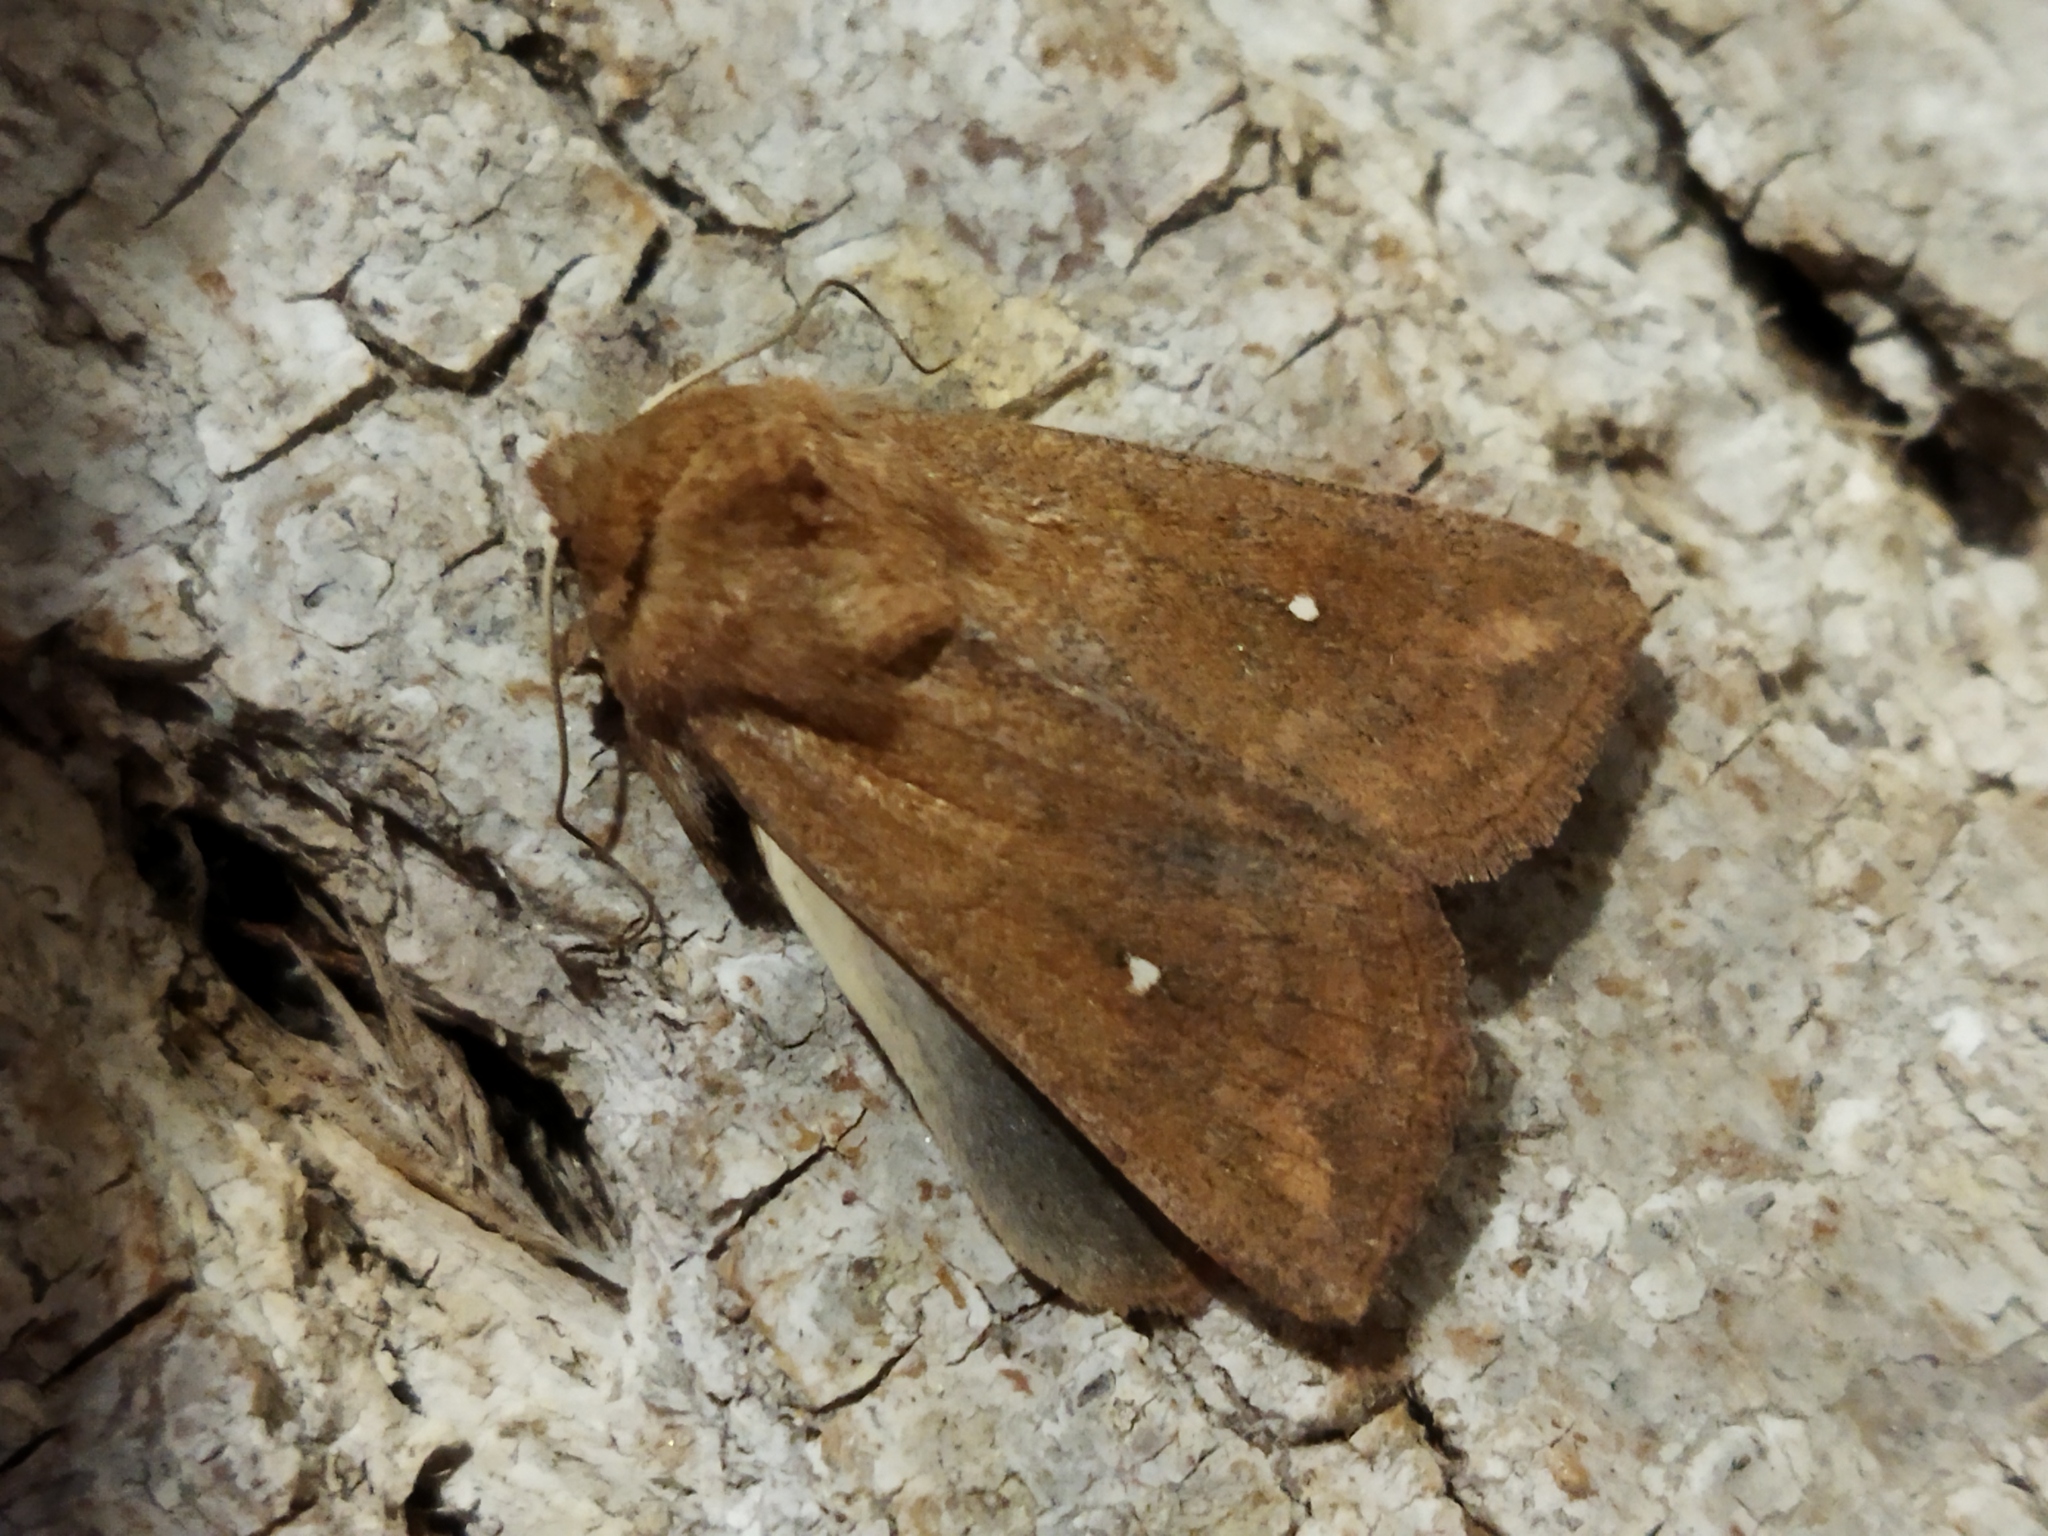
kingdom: Animalia
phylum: Arthropoda
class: Insecta
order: Lepidoptera
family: Noctuidae
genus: Mythimna
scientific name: Mythimna albipuncta
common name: White-point
